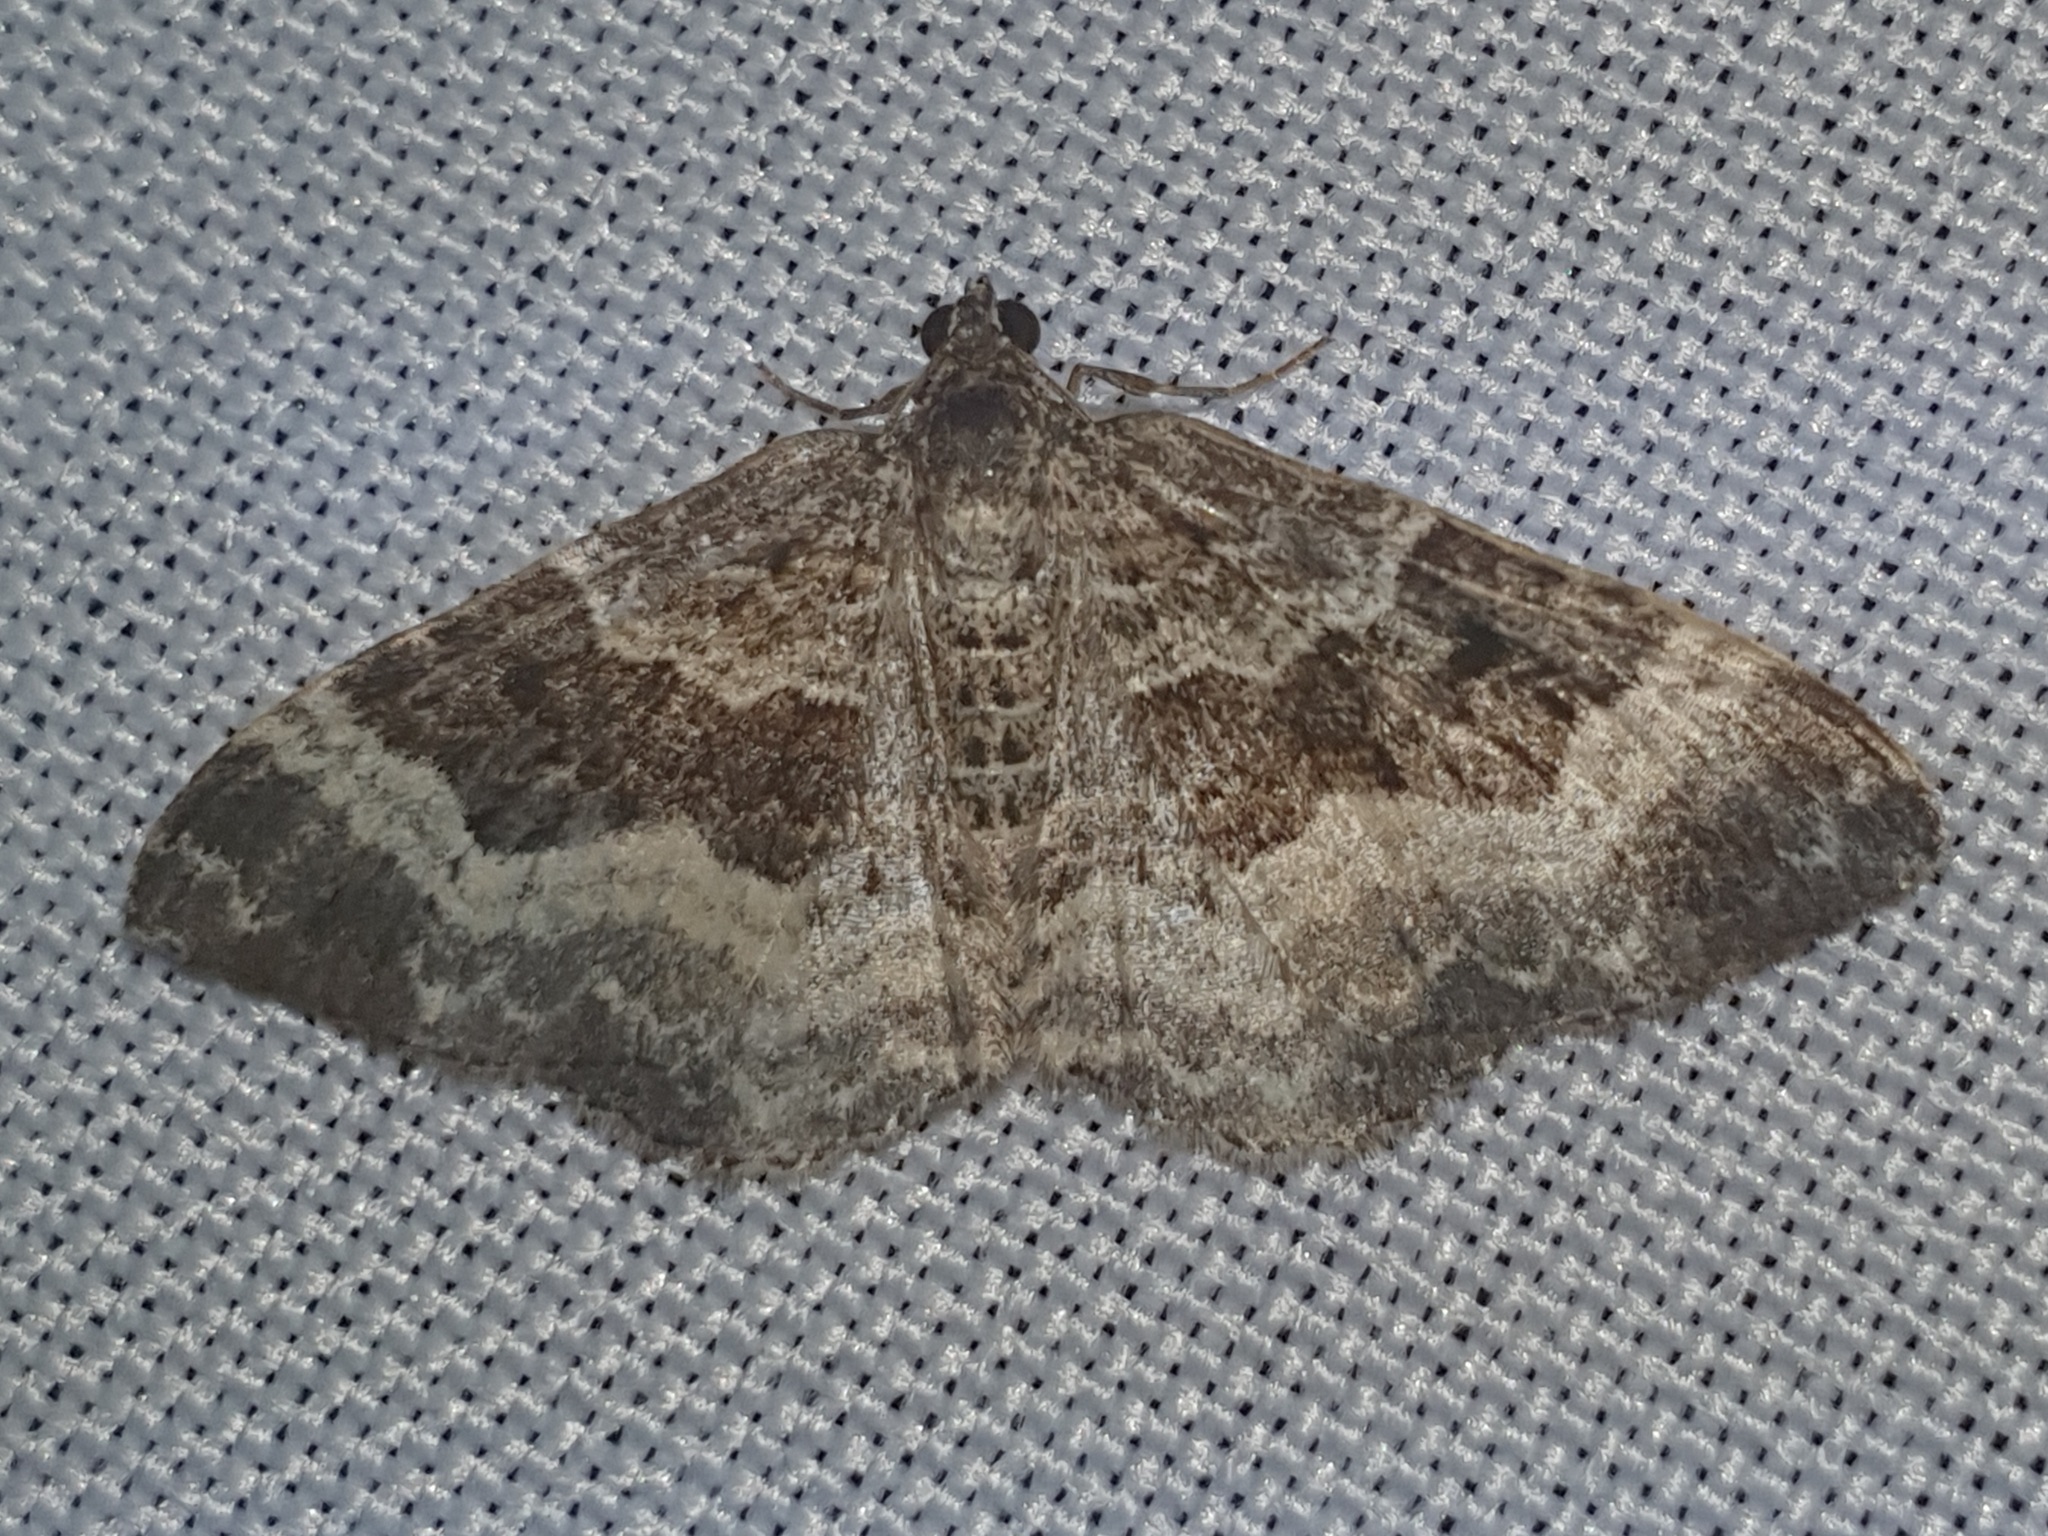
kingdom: Animalia
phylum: Arthropoda
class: Insecta
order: Lepidoptera
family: Geometridae
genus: Epirrhoe
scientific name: Epirrhoe alternata
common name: Common carpet
